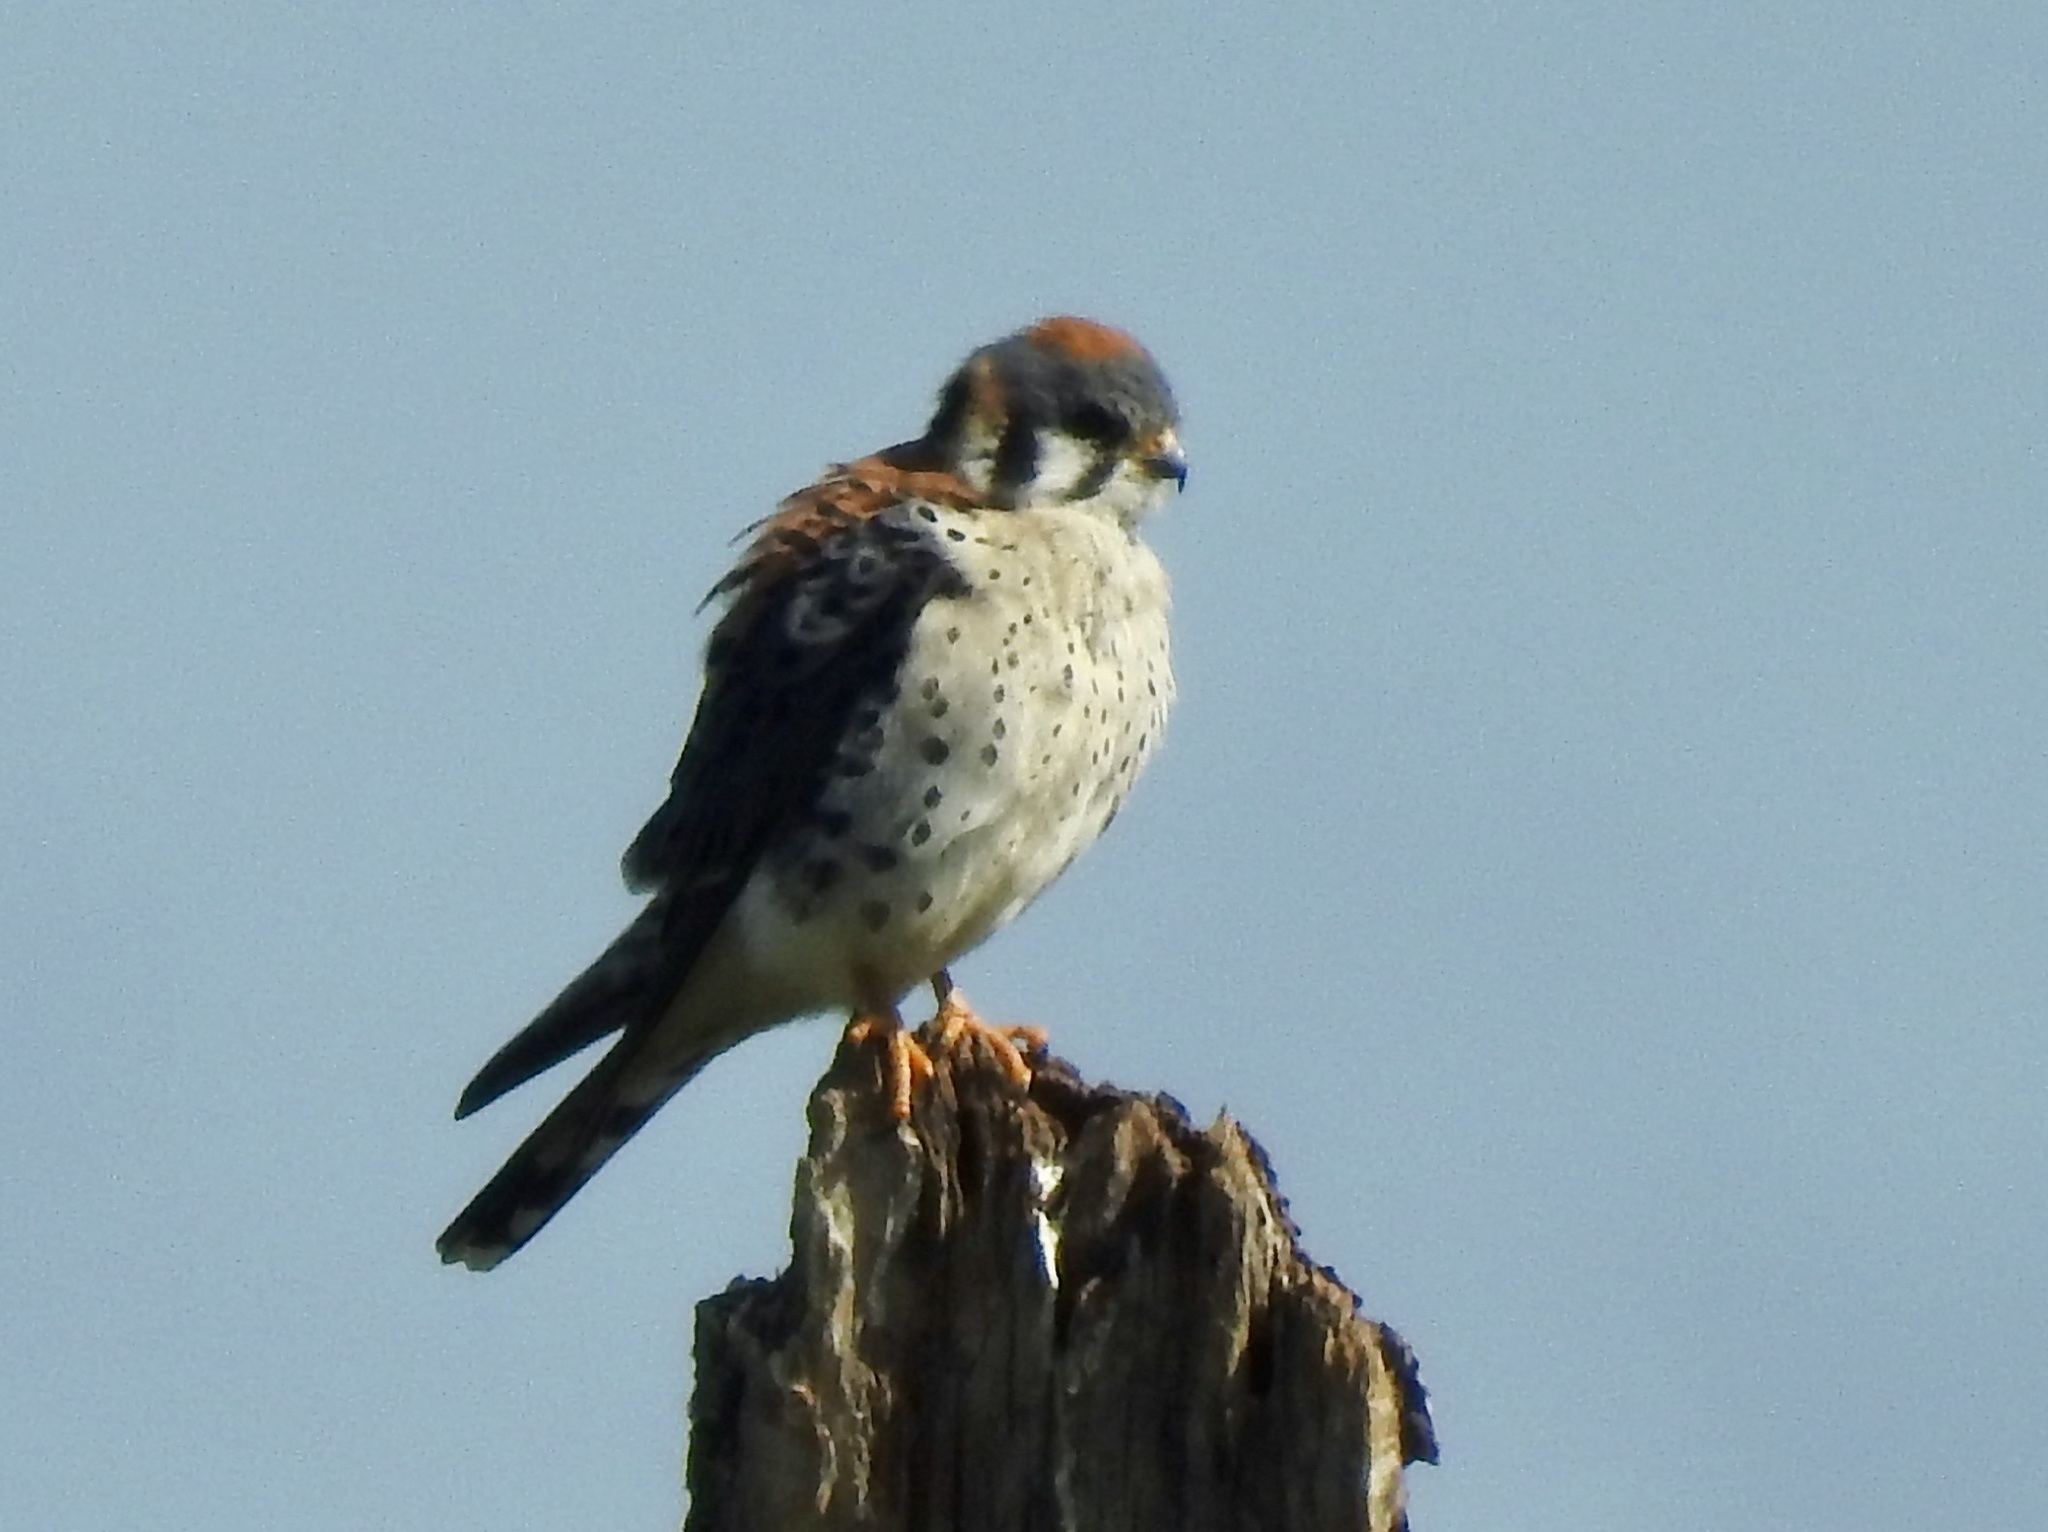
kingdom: Animalia
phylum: Chordata
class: Aves
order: Falconiformes
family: Falconidae
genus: Falco
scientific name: Falco sparverius
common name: American kestrel
